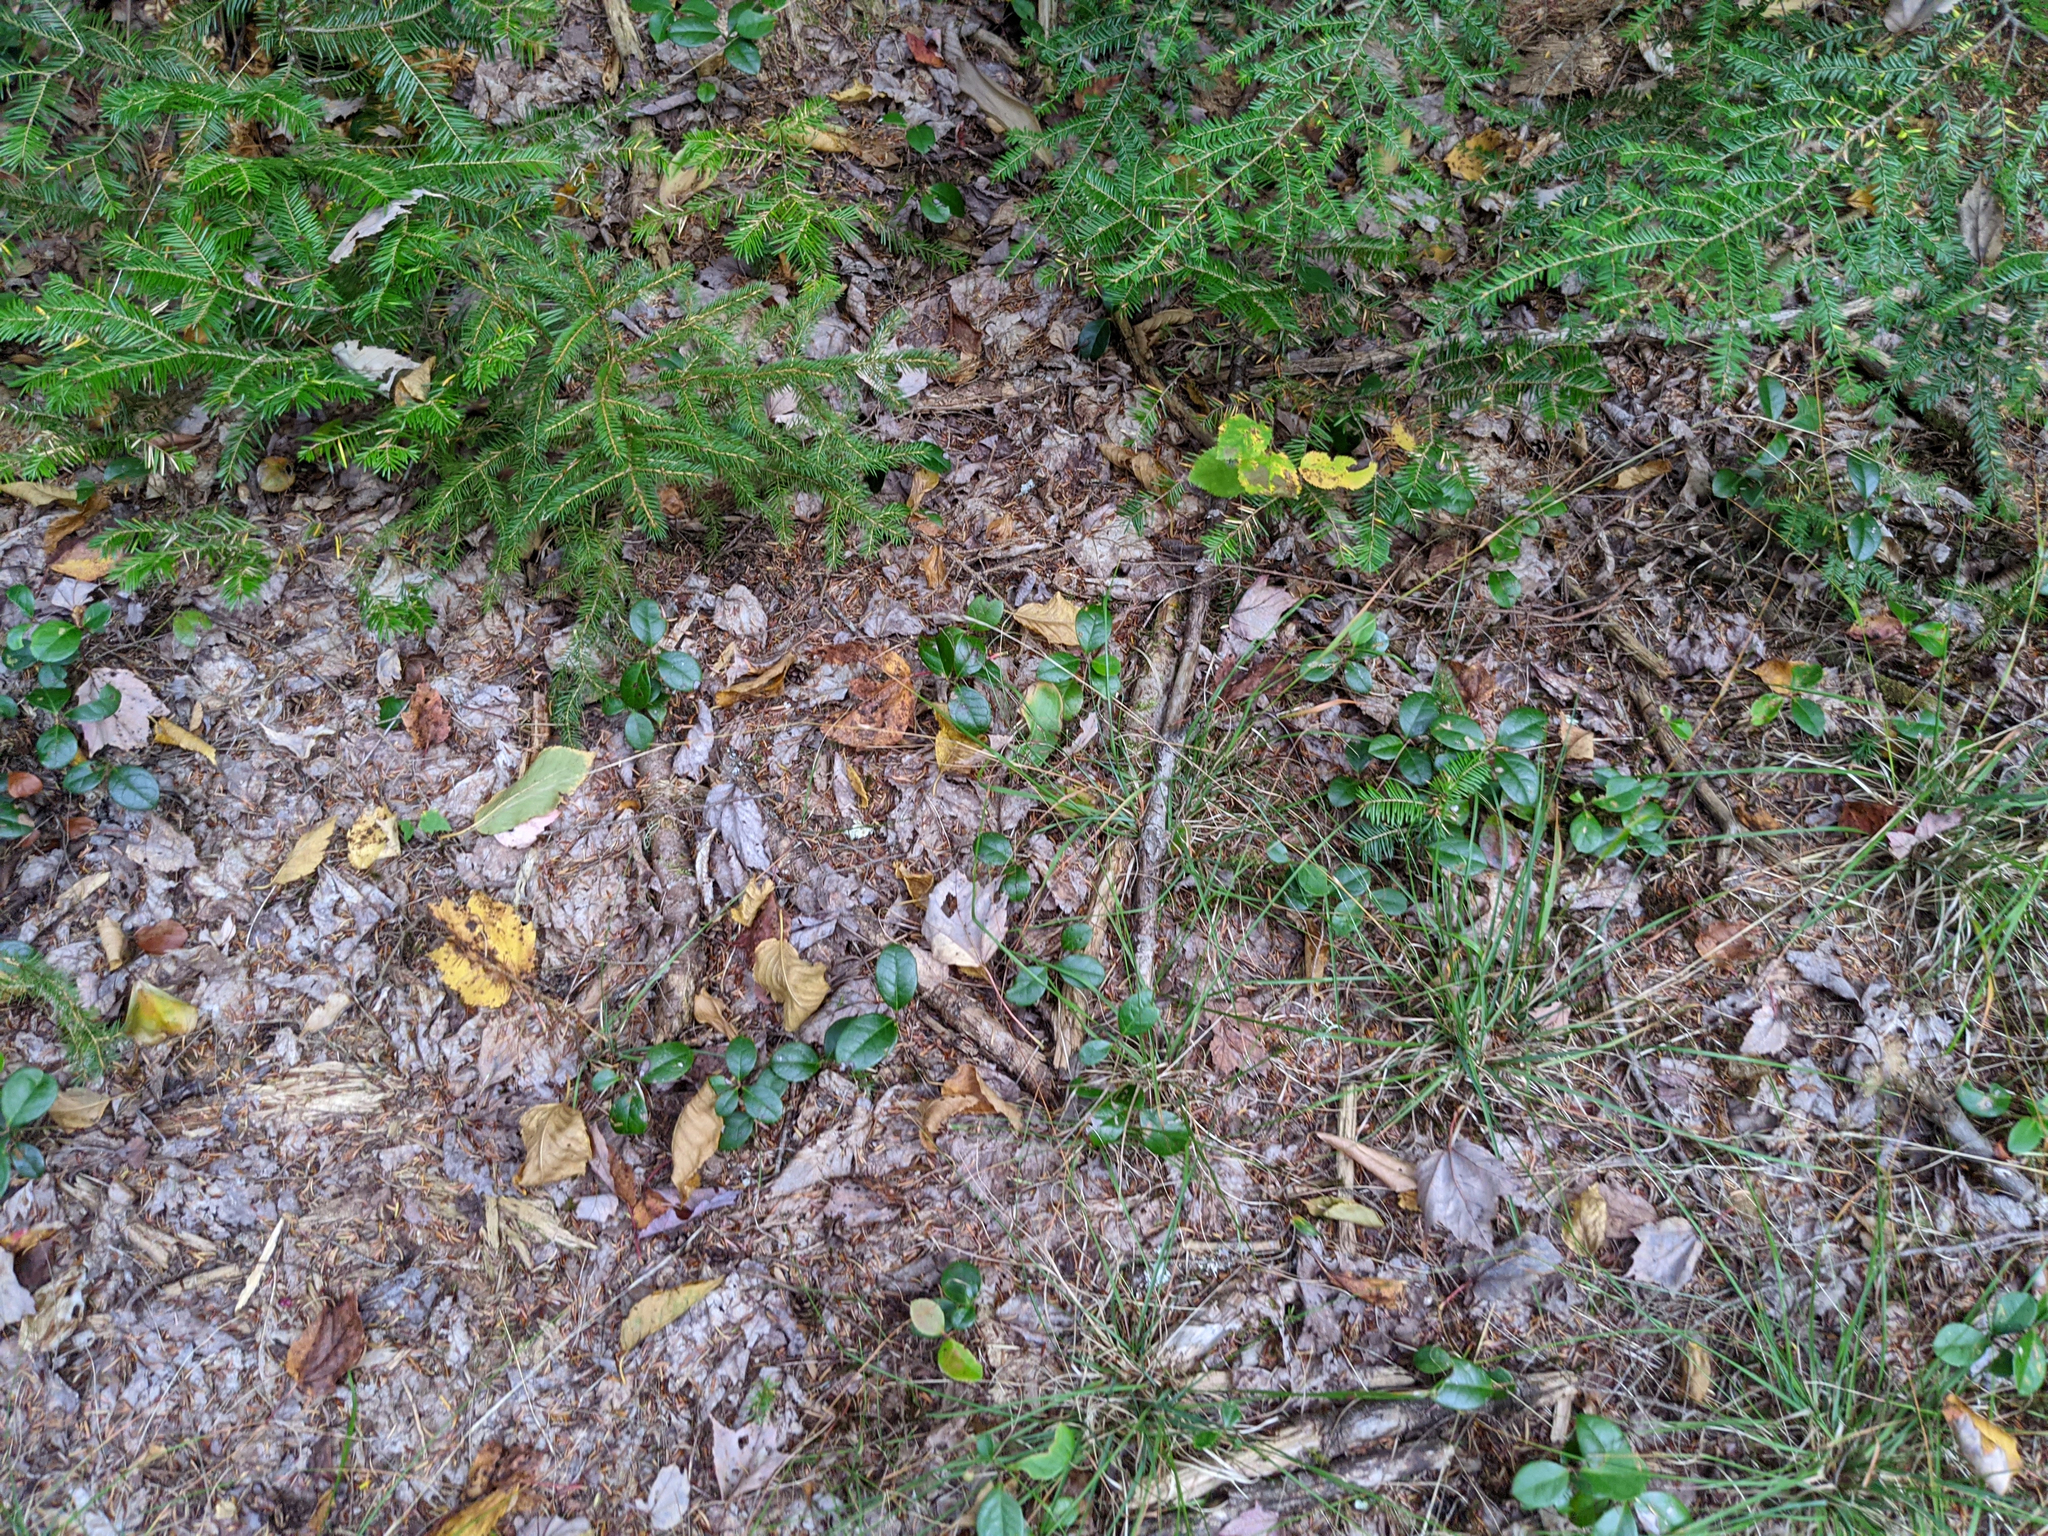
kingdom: Plantae
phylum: Tracheophyta
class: Magnoliopsida
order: Ericales
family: Ericaceae
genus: Gaultheria
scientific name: Gaultheria procumbens
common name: Checkerberry
